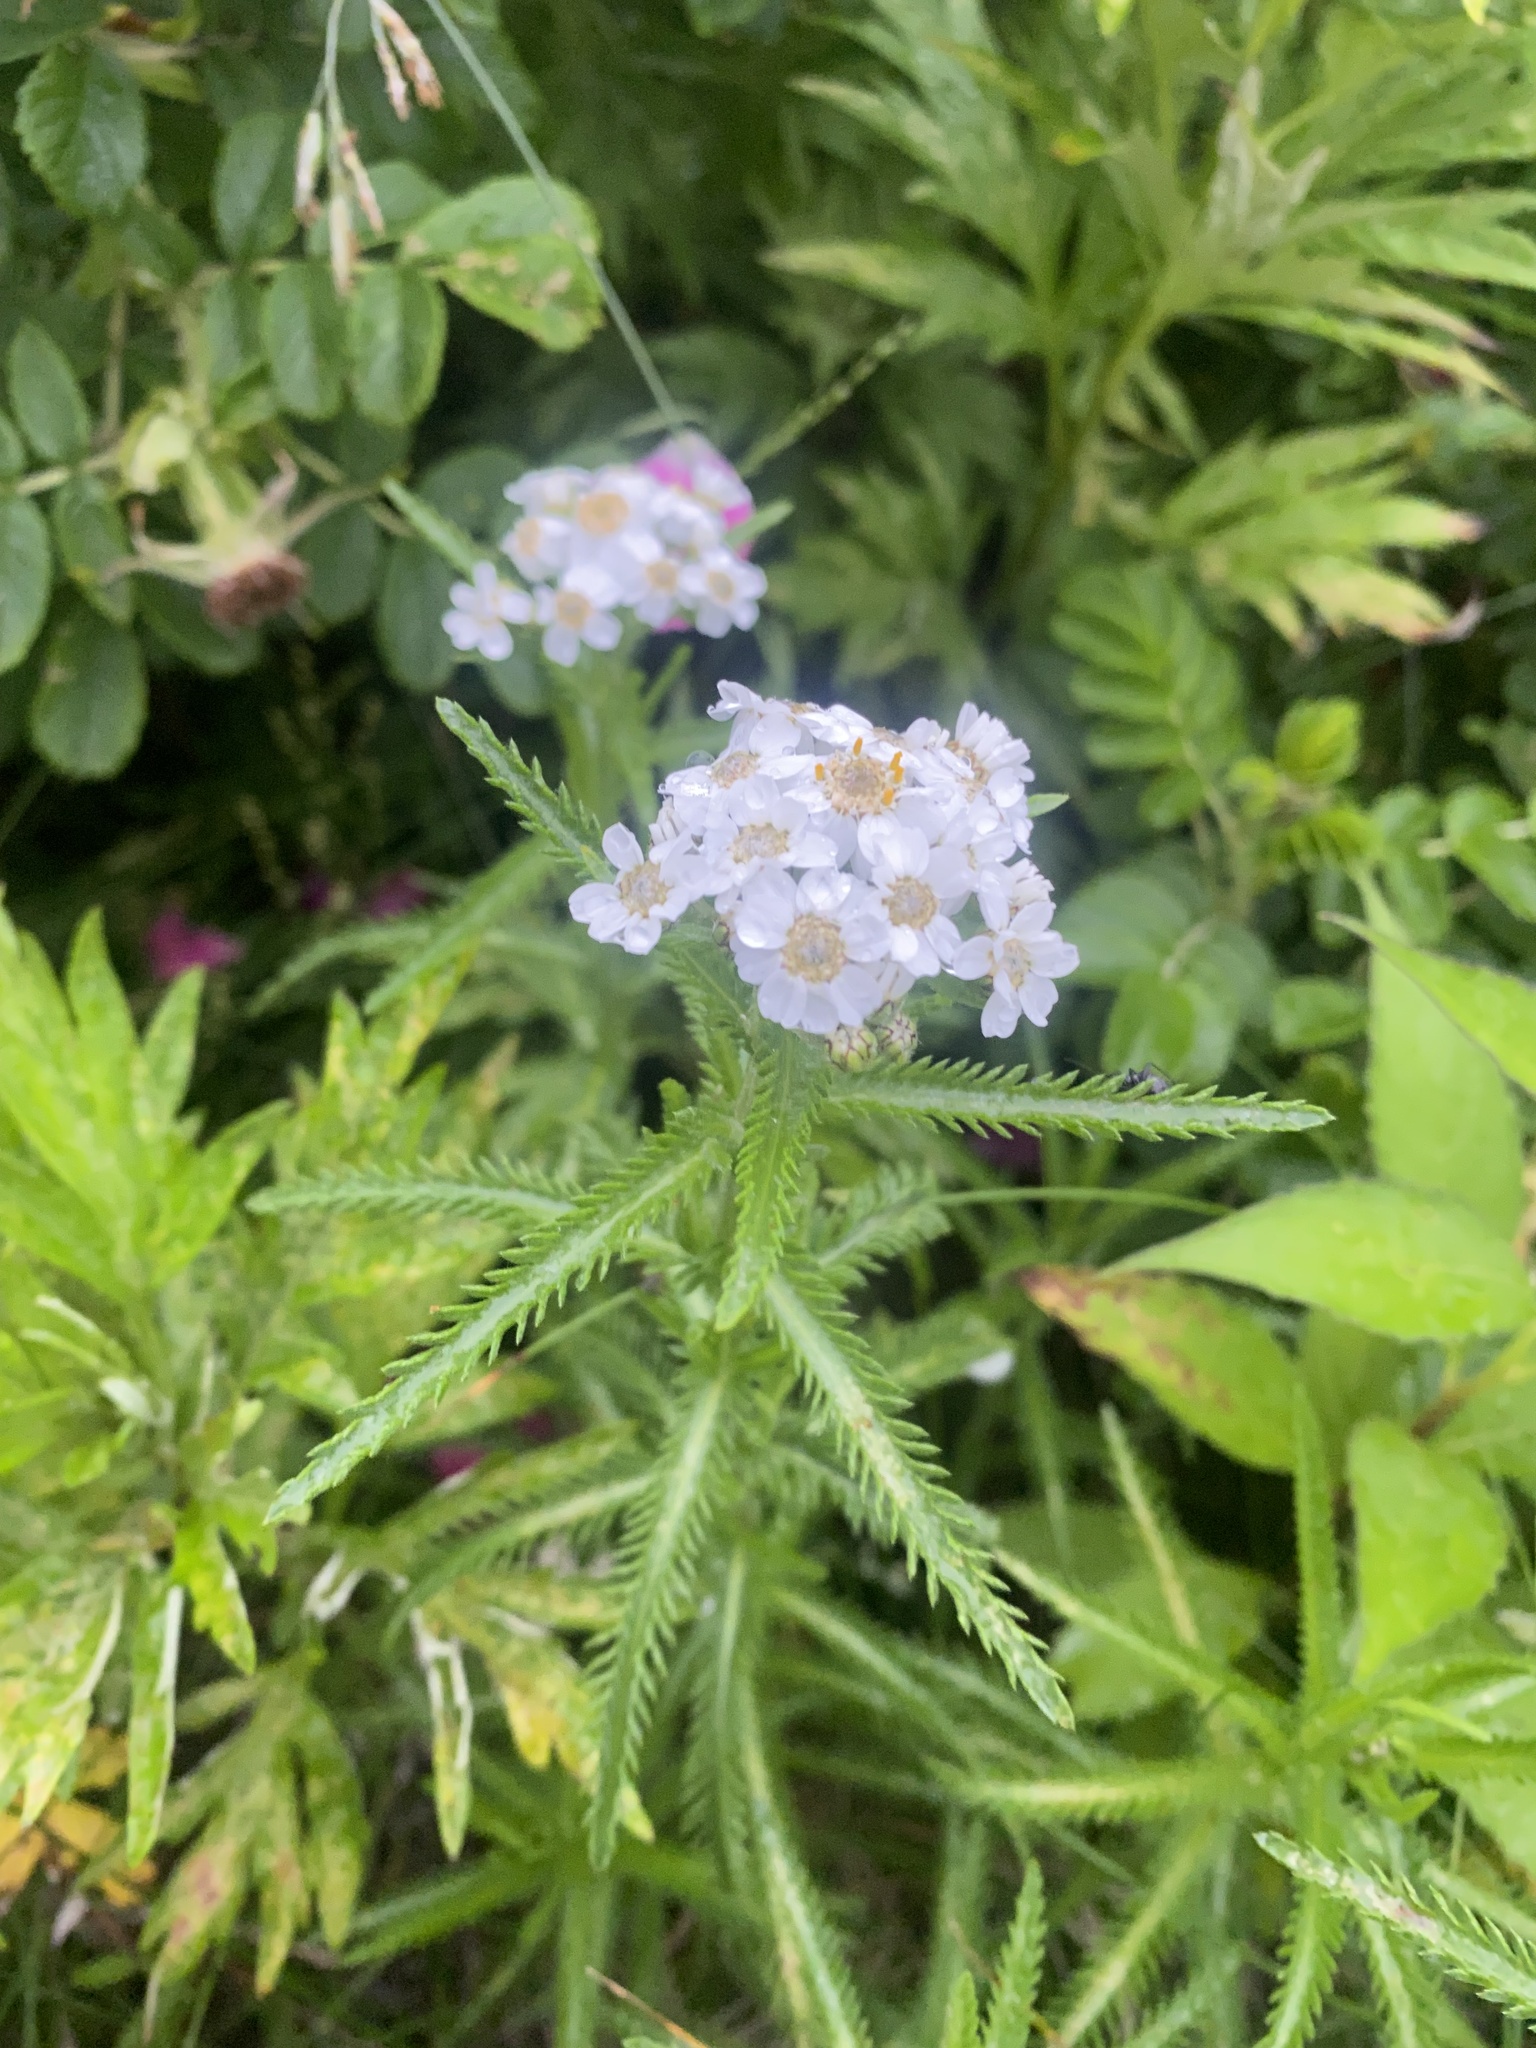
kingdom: Plantae
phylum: Tracheophyta
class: Magnoliopsida
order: Asterales
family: Asteraceae
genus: Achillea
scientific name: Achillea alpina
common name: Siberian yarrow
